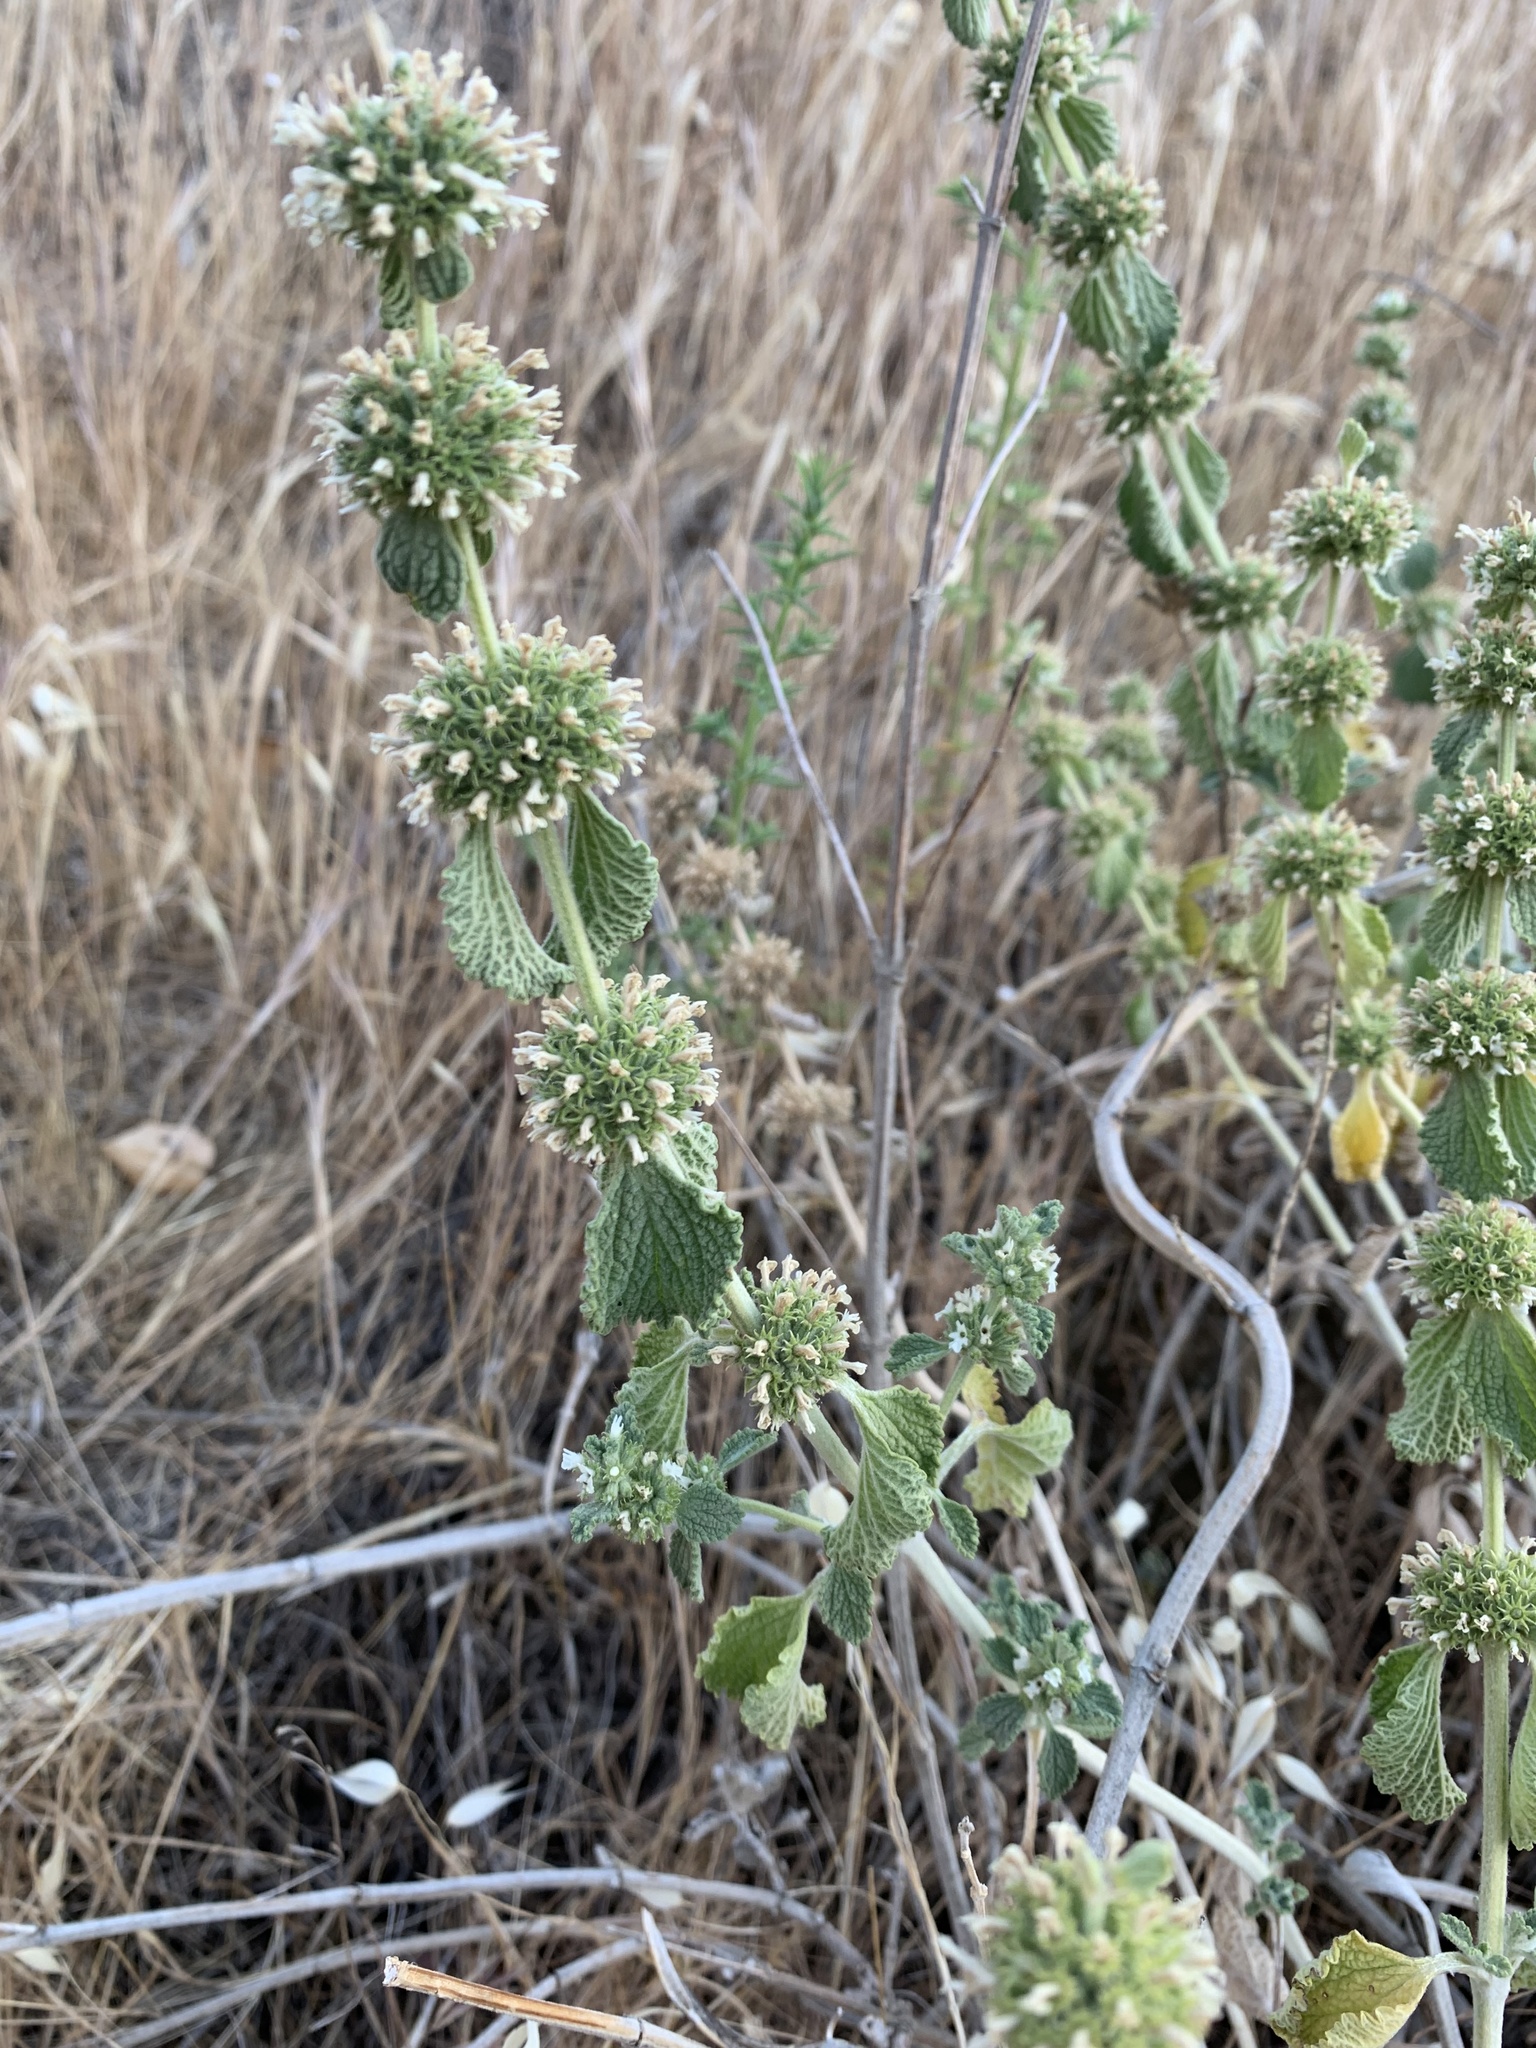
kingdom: Plantae
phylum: Tracheophyta
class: Magnoliopsida
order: Lamiales
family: Lamiaceae
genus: Marrubium
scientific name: Marrubium vulgare
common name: Horehound
